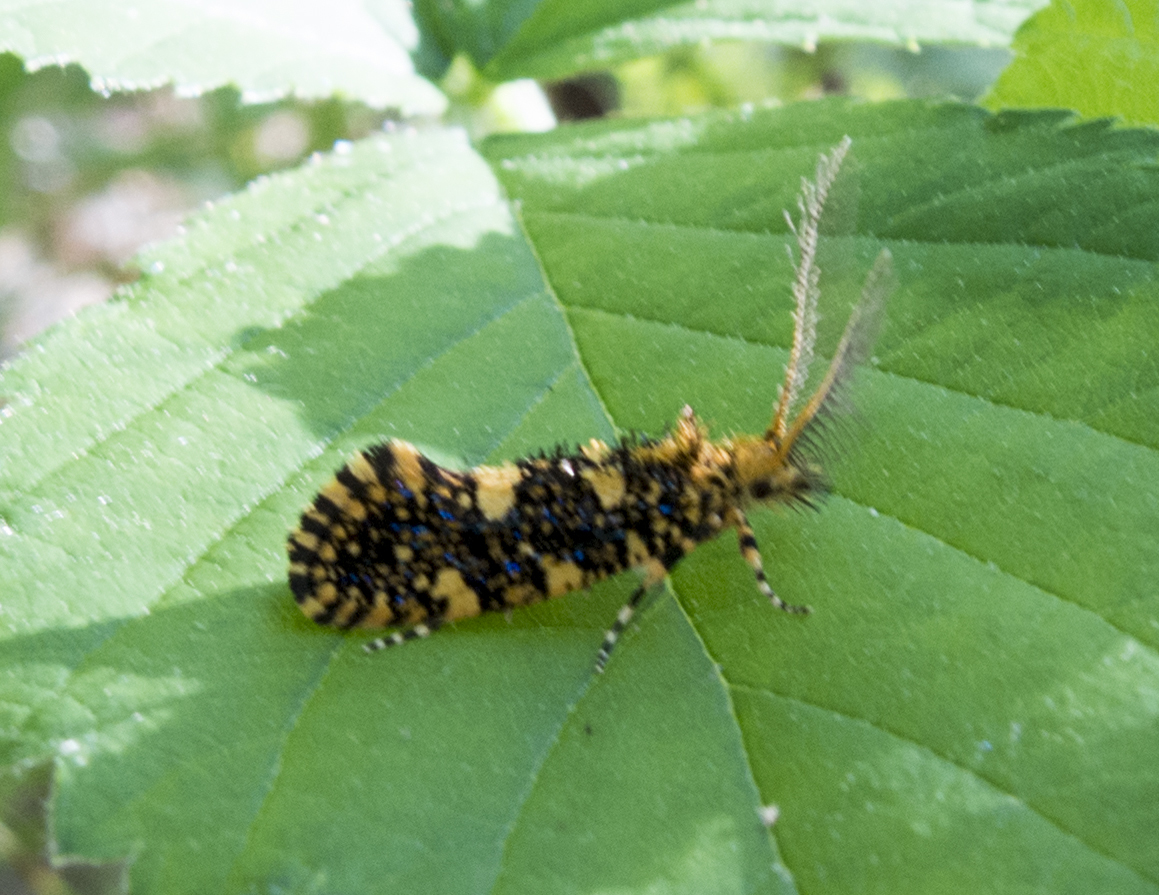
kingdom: Animalia
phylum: Arthropoda
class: Insecta
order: Lepidoptera
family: Tineidae
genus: Euplocamus
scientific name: Euplocamus ophisa
